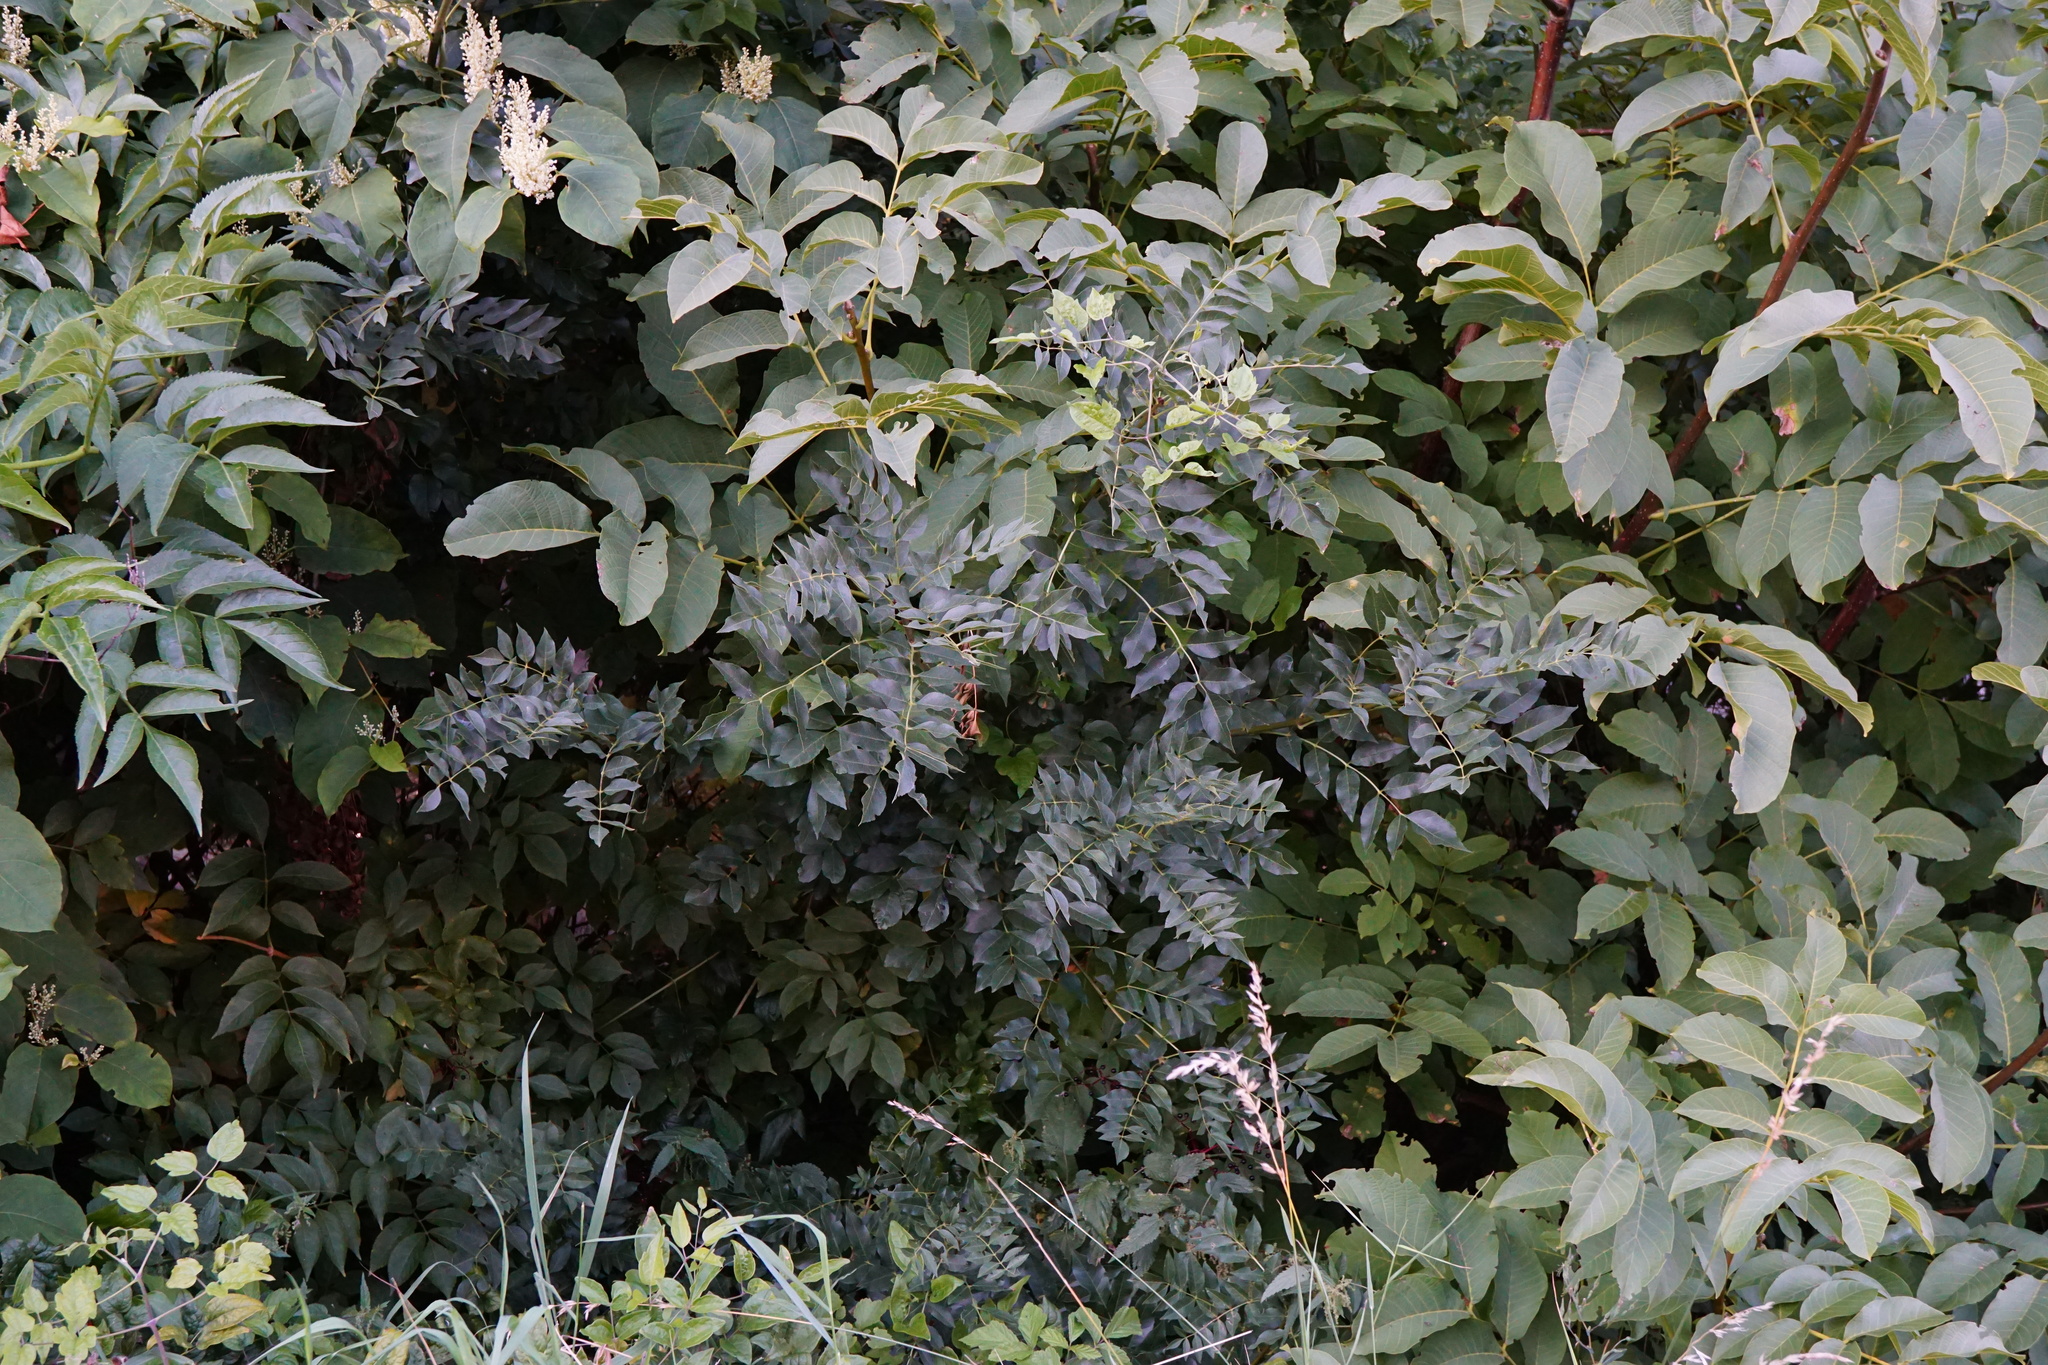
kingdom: Plantae
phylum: Tracheophyta
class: Magnoliopsida
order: Lamiales
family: Oleaceae
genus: Fraxinus
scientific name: Fraxinus excelsior
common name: European ash
